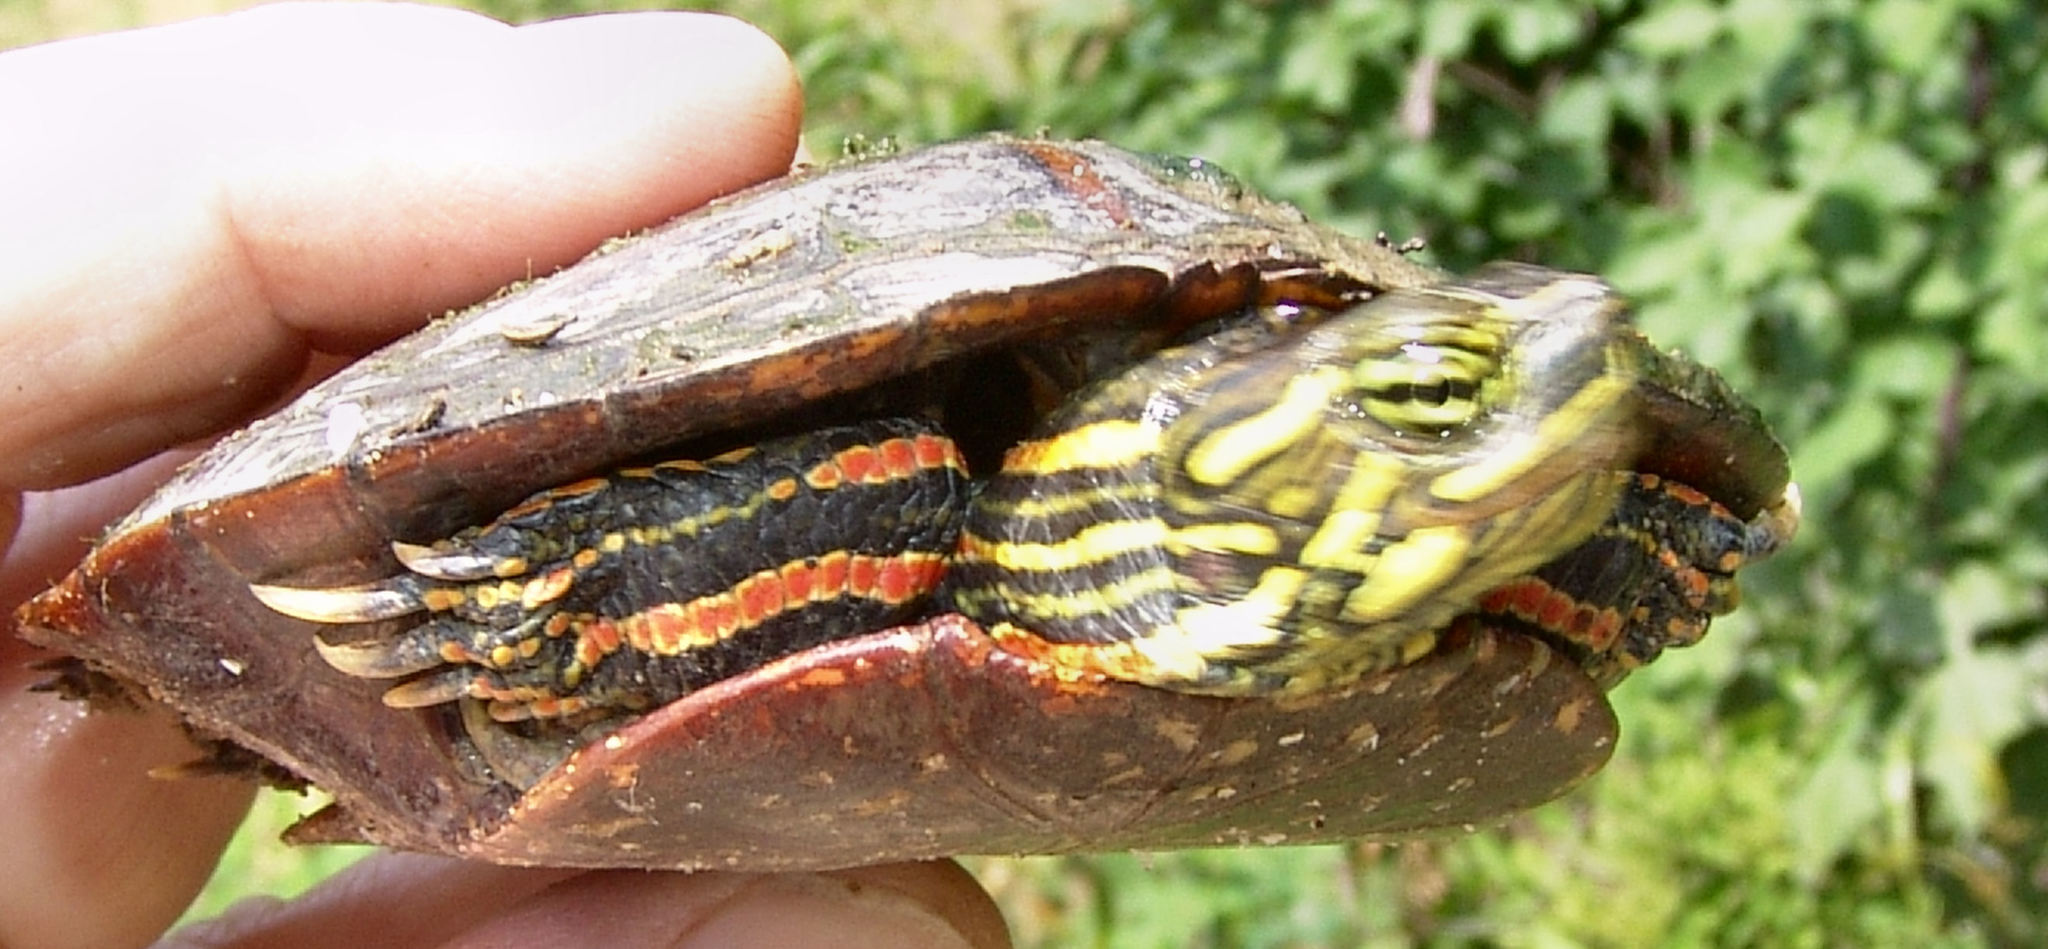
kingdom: Animalia
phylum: Chordata
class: Testudines
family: Emydidae
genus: Chrysemys
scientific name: Chrysemys dorsalis
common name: Southern painted turtle
